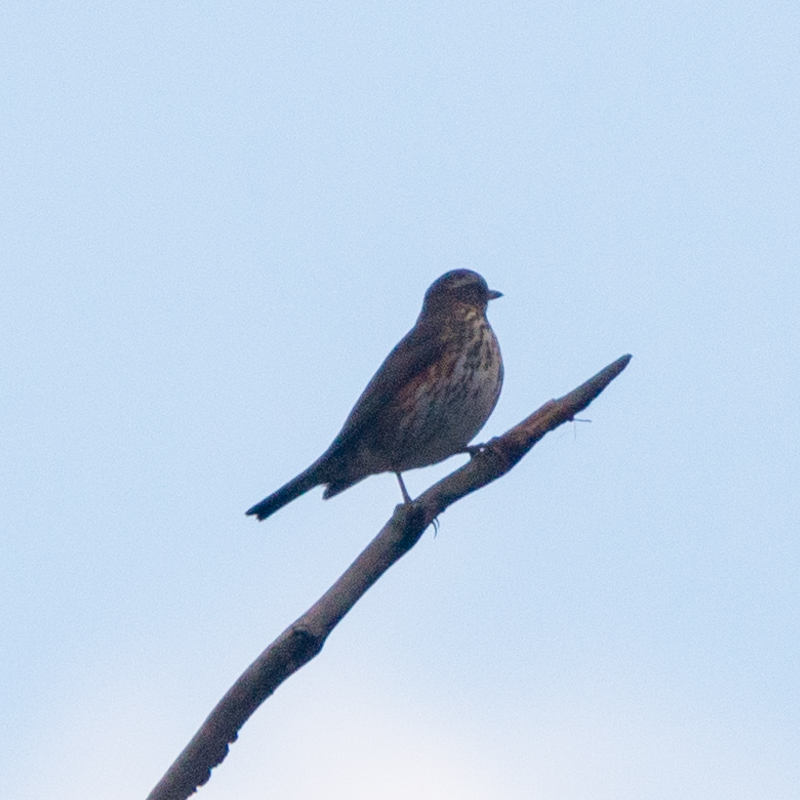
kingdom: Animalia
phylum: Chordata
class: Aves
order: Passeriformes
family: Turdidae
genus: Turdus
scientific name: Turdus iliacus
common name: Redwing
